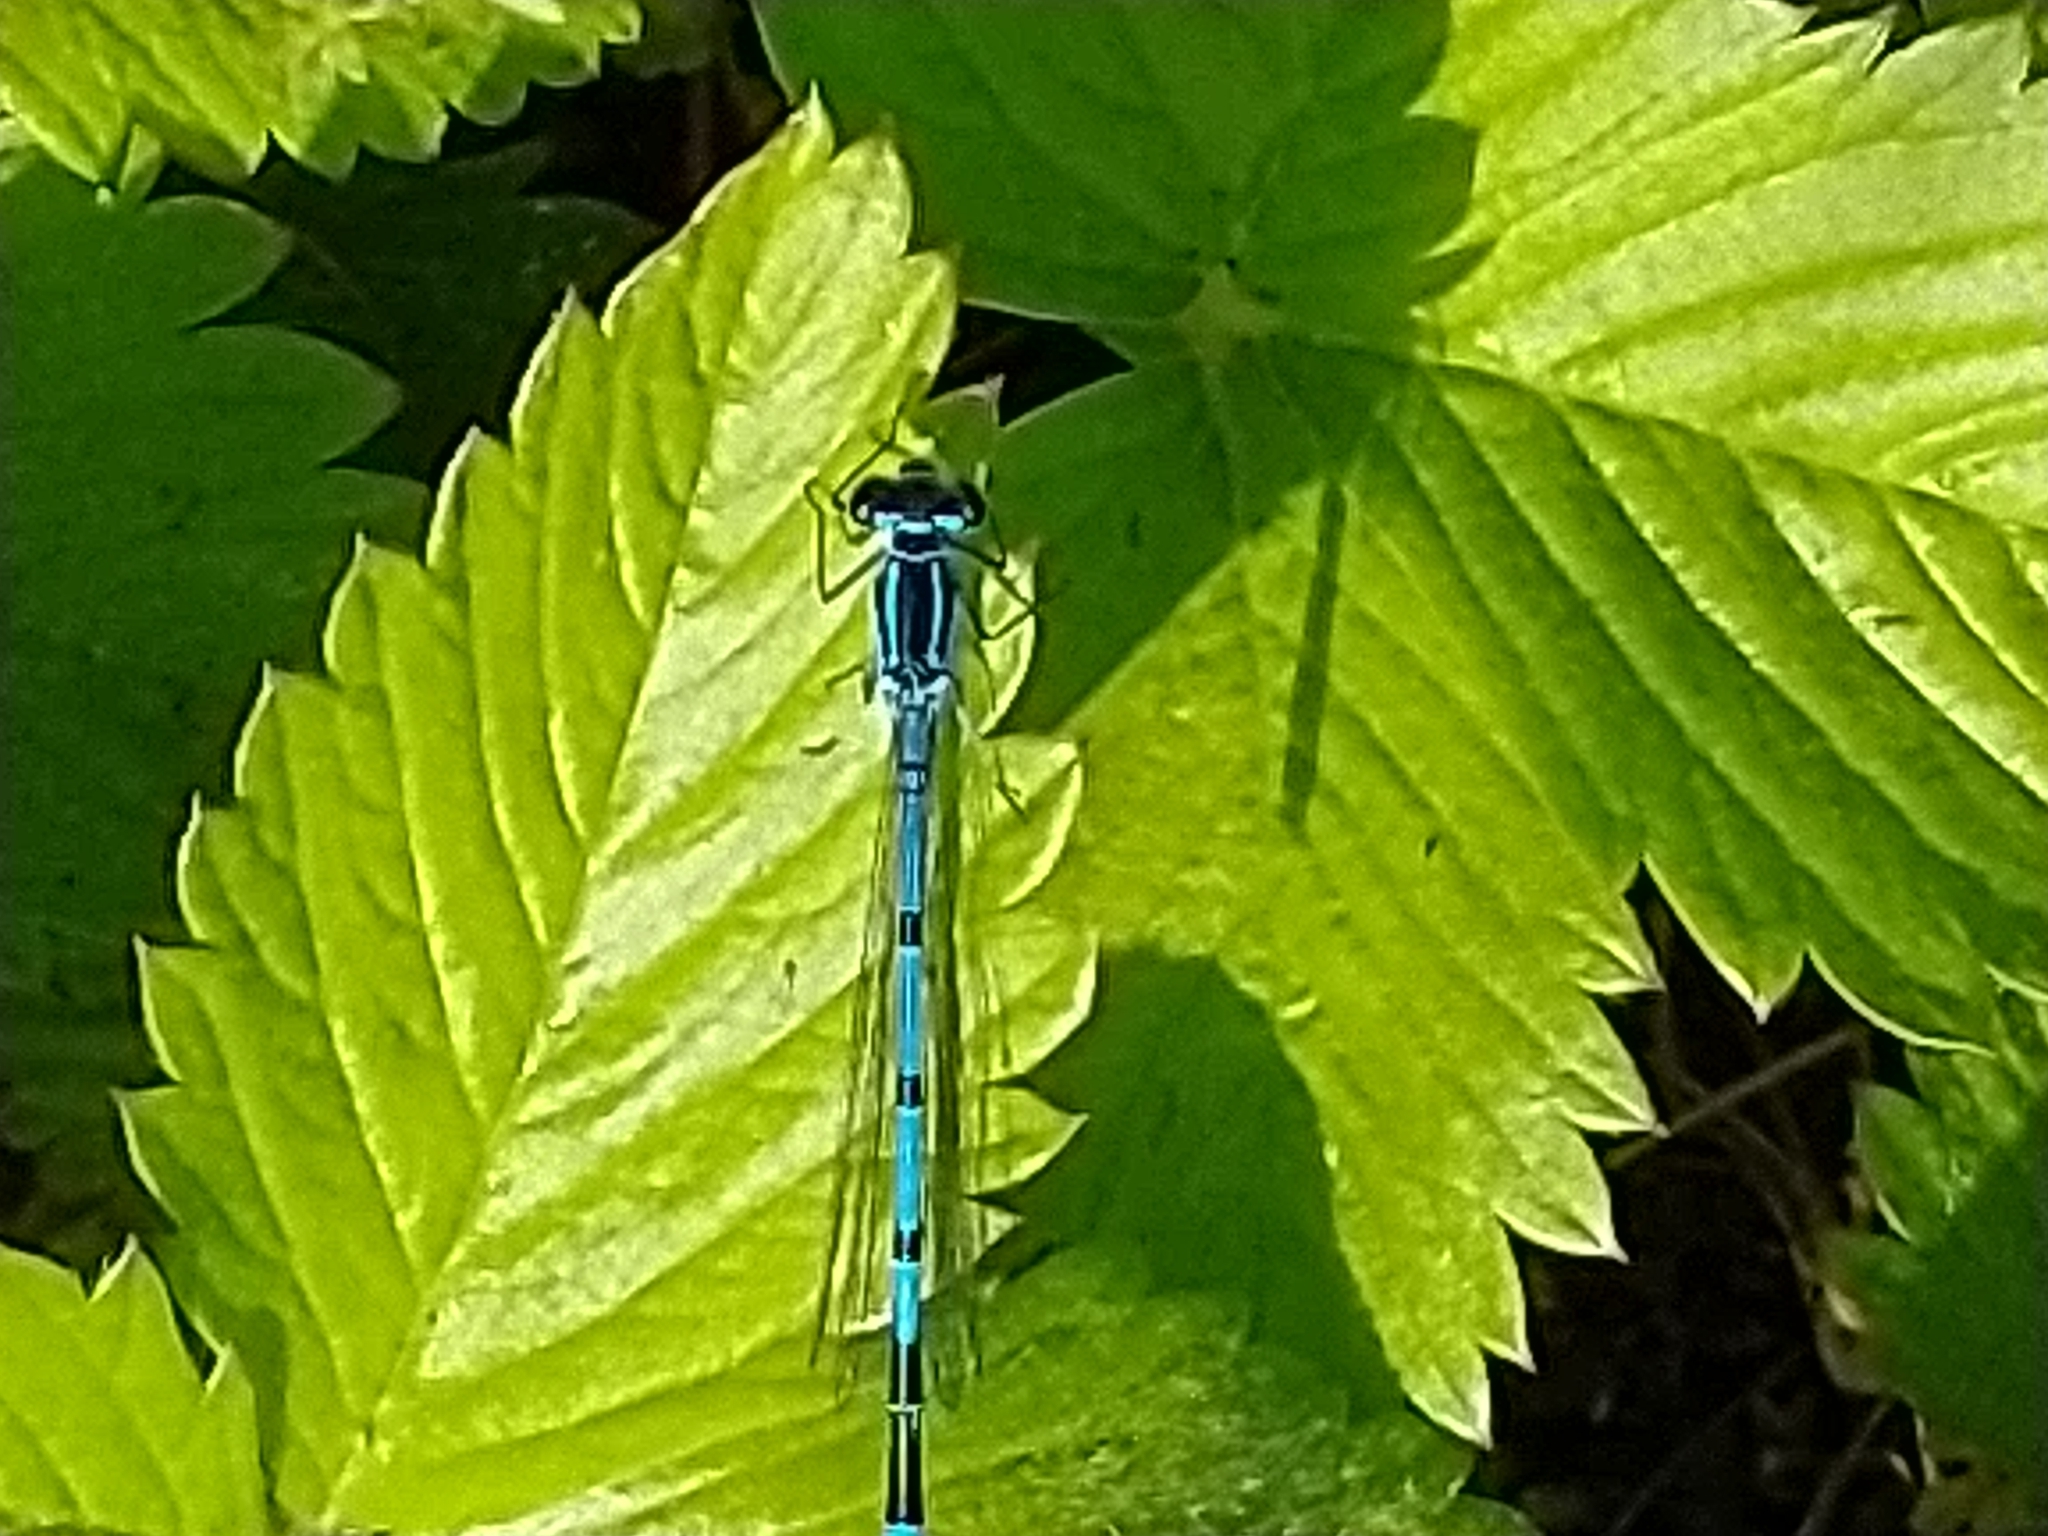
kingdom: Animalia
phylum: Arthropoda
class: Insecta
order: Odonata
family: Coenagrionidae
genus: Coenagrion
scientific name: Coenagrion puella
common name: Azure damselfly
